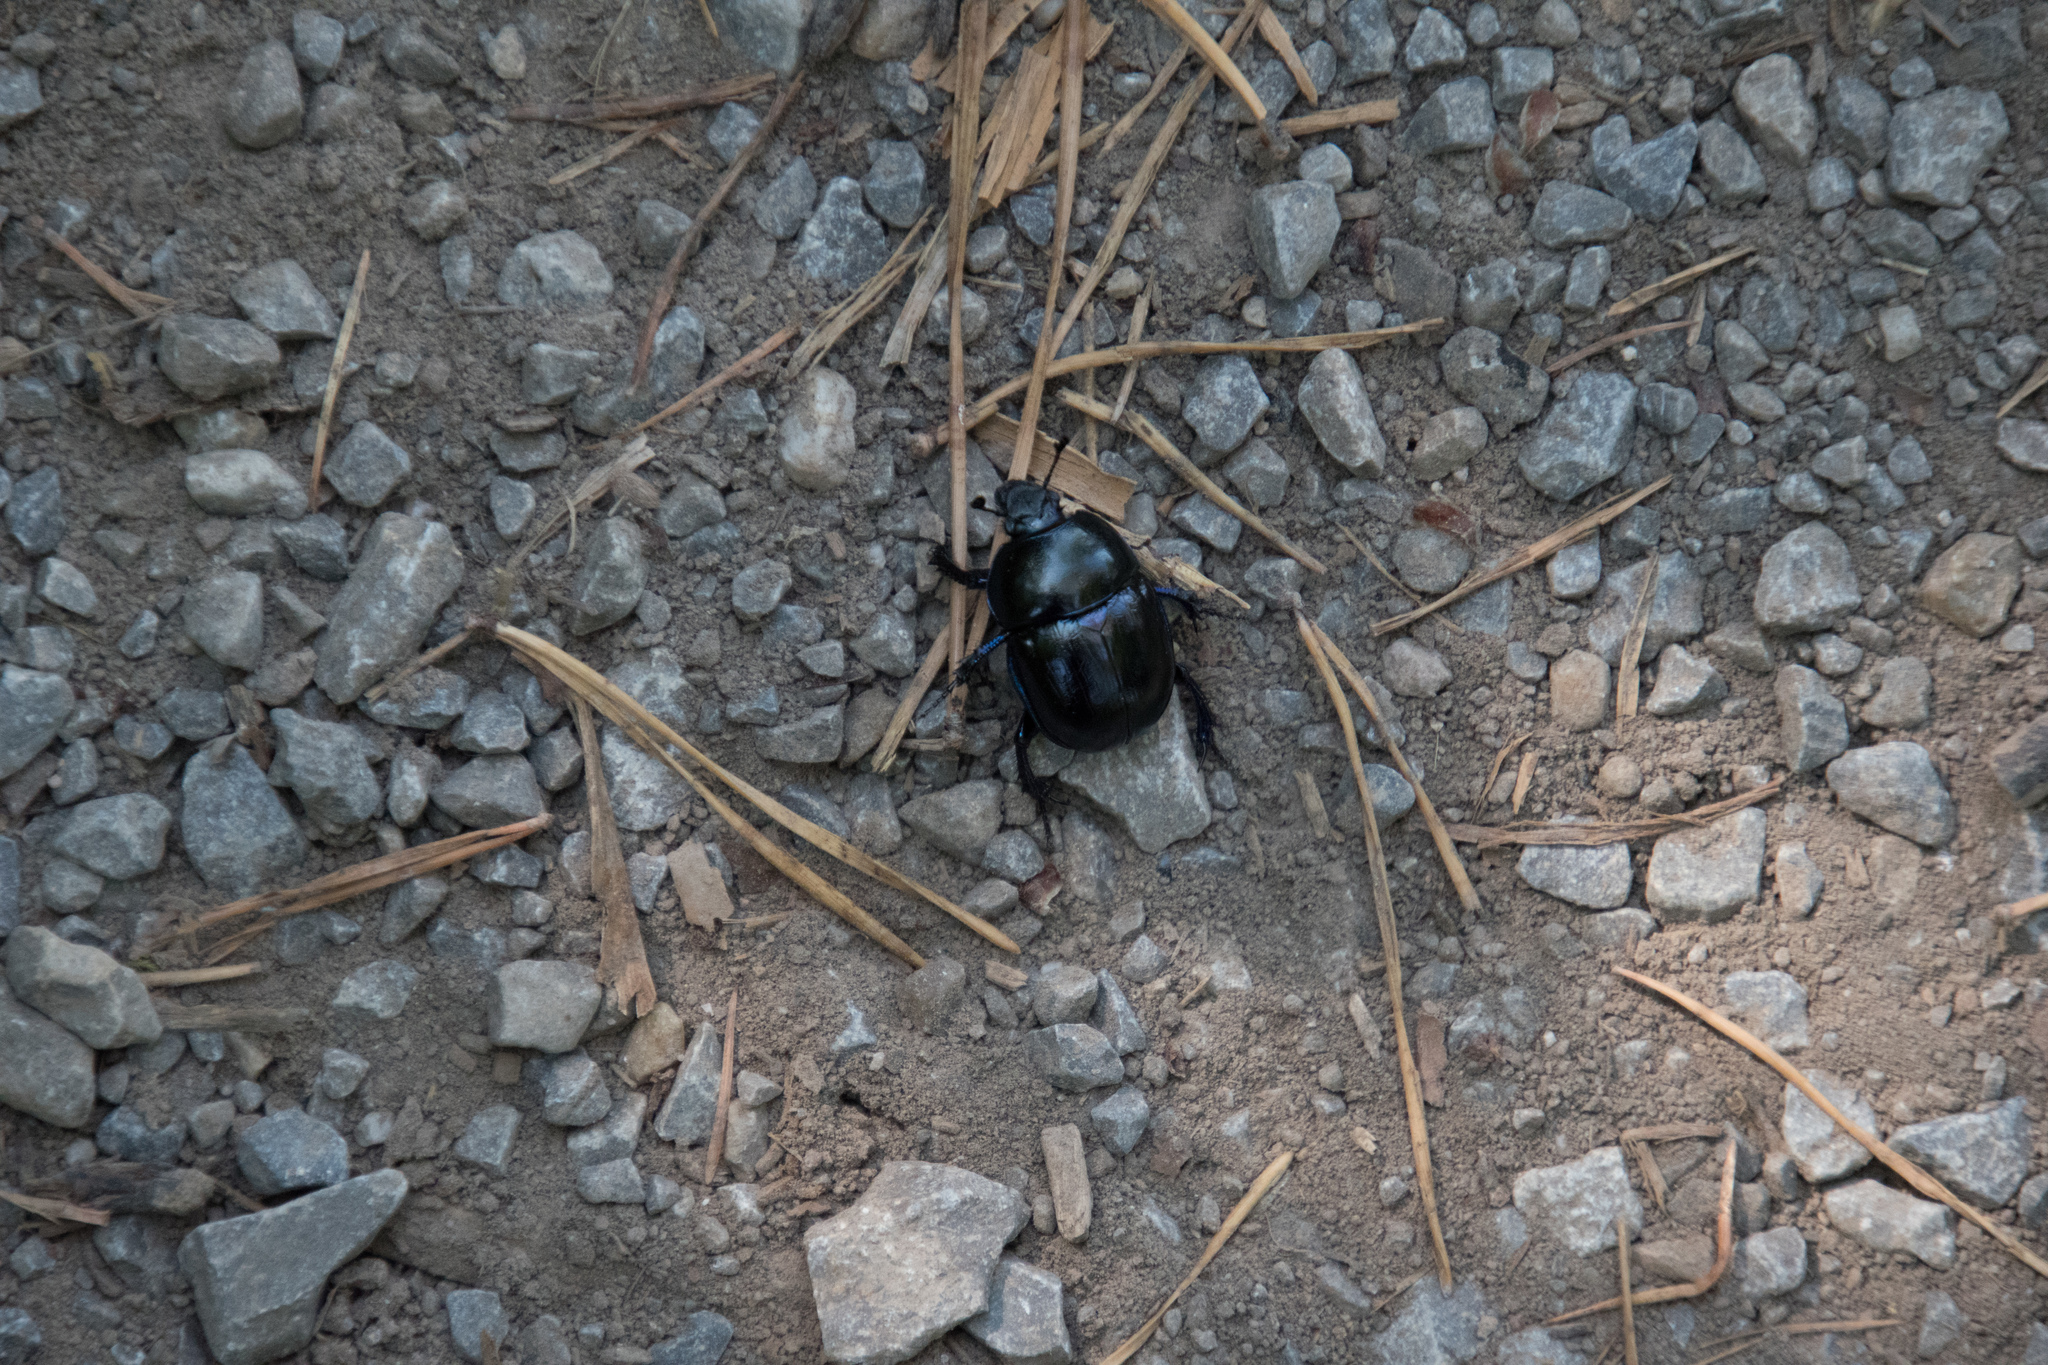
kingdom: Animalia
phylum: Arthropoda
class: Insecta
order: Coleoptera
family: Geotrupidae
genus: Anoplotrupes
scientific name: Anoplotrupes stercorosus
